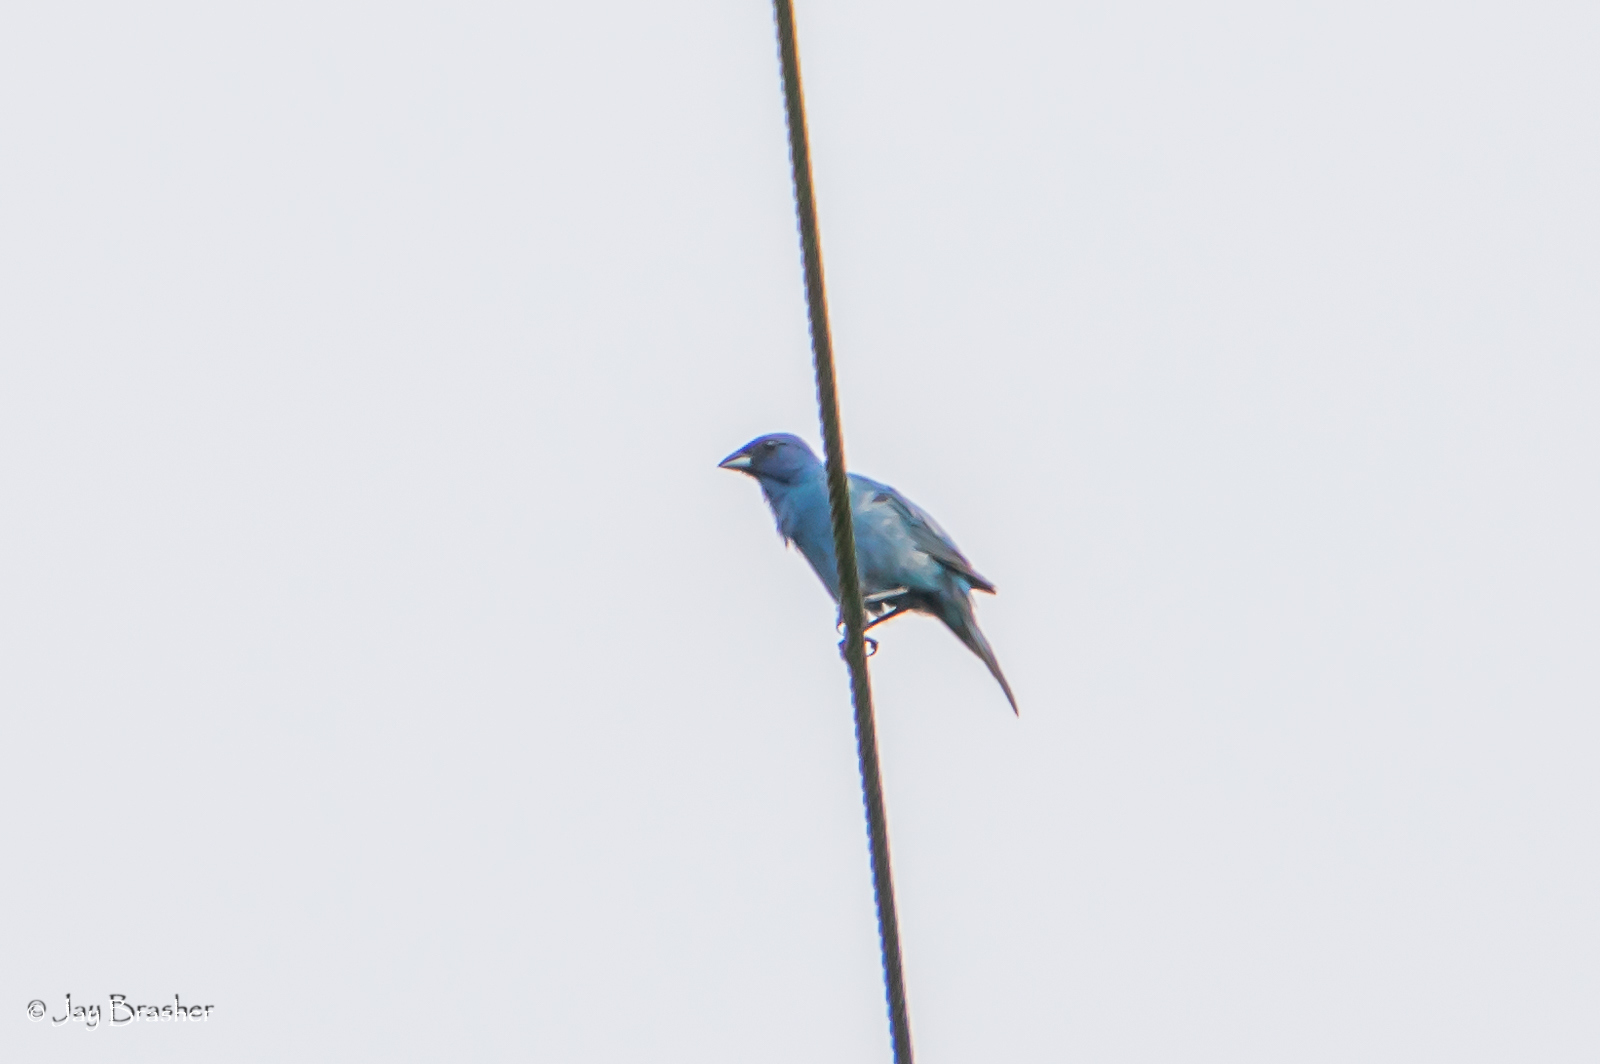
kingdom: Animalia
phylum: Chordata
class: Aves
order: Passeriformes
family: Cardinalidae
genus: Passerina
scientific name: Passerina cyanea
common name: Indigo bunting
